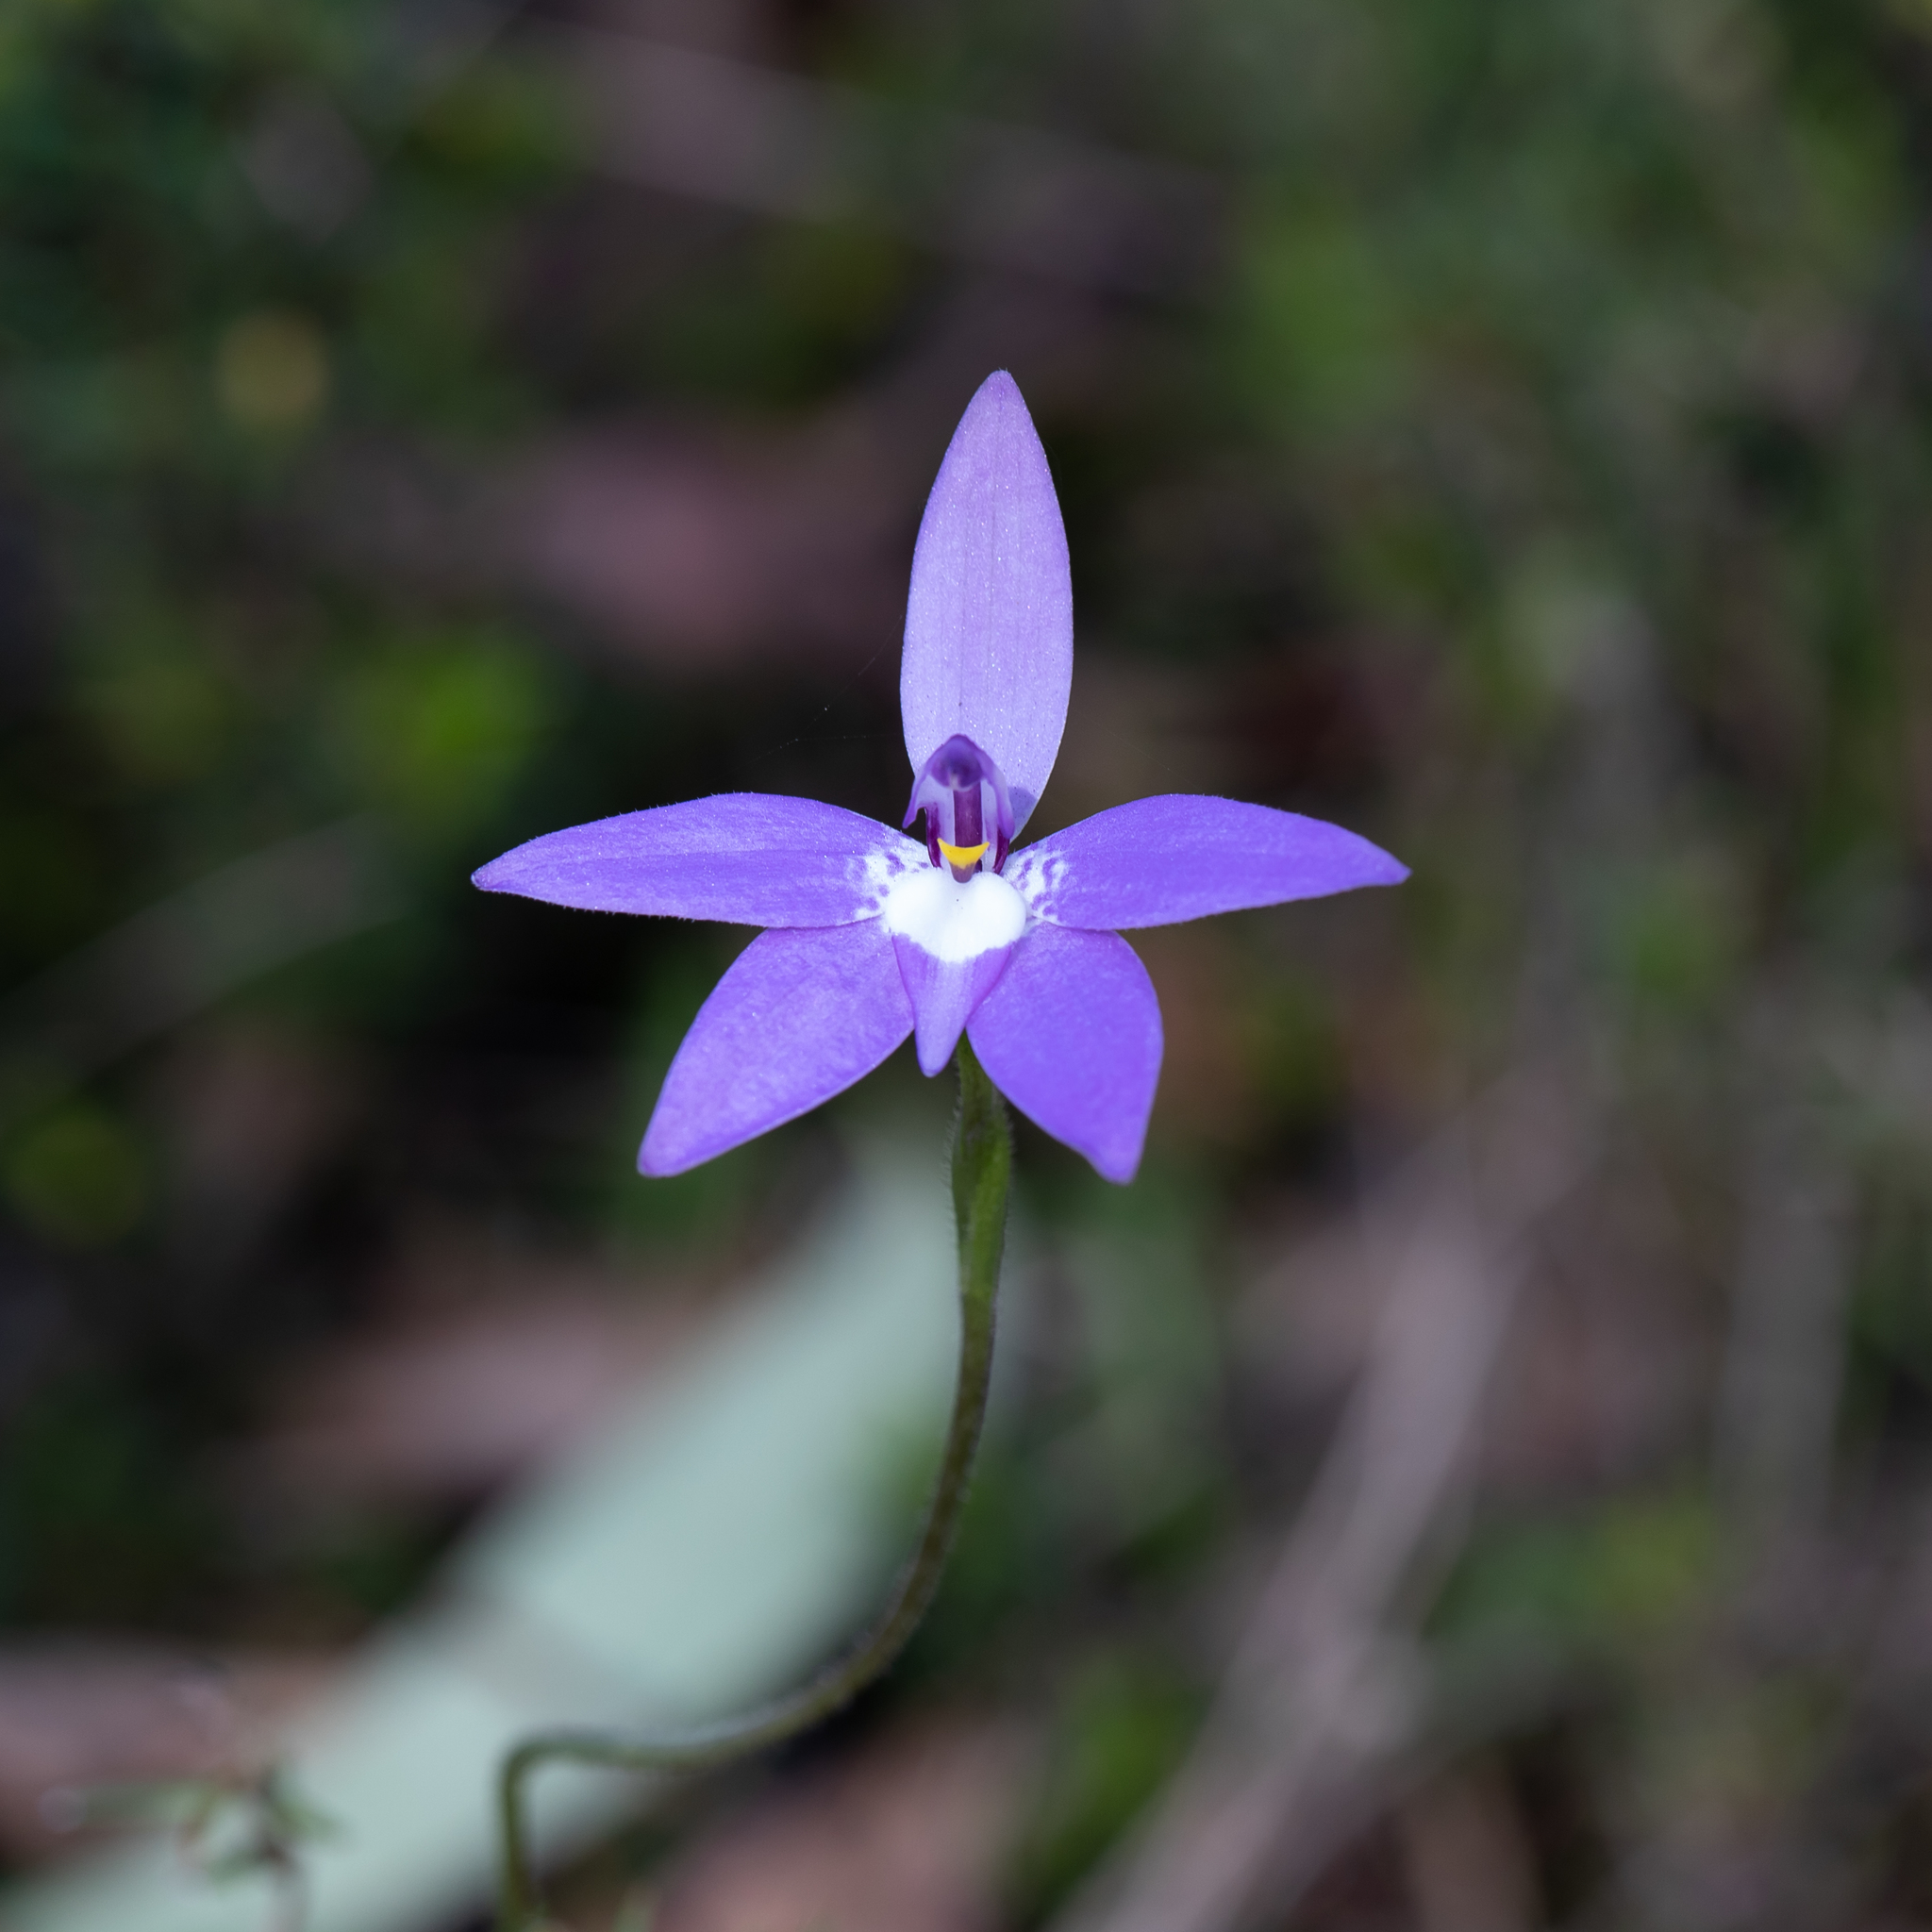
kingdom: Plantae
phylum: Tracheophyta
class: Liliopsida
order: Asparagales
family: Orchidaceae
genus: Caladenia
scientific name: Caladenia major
